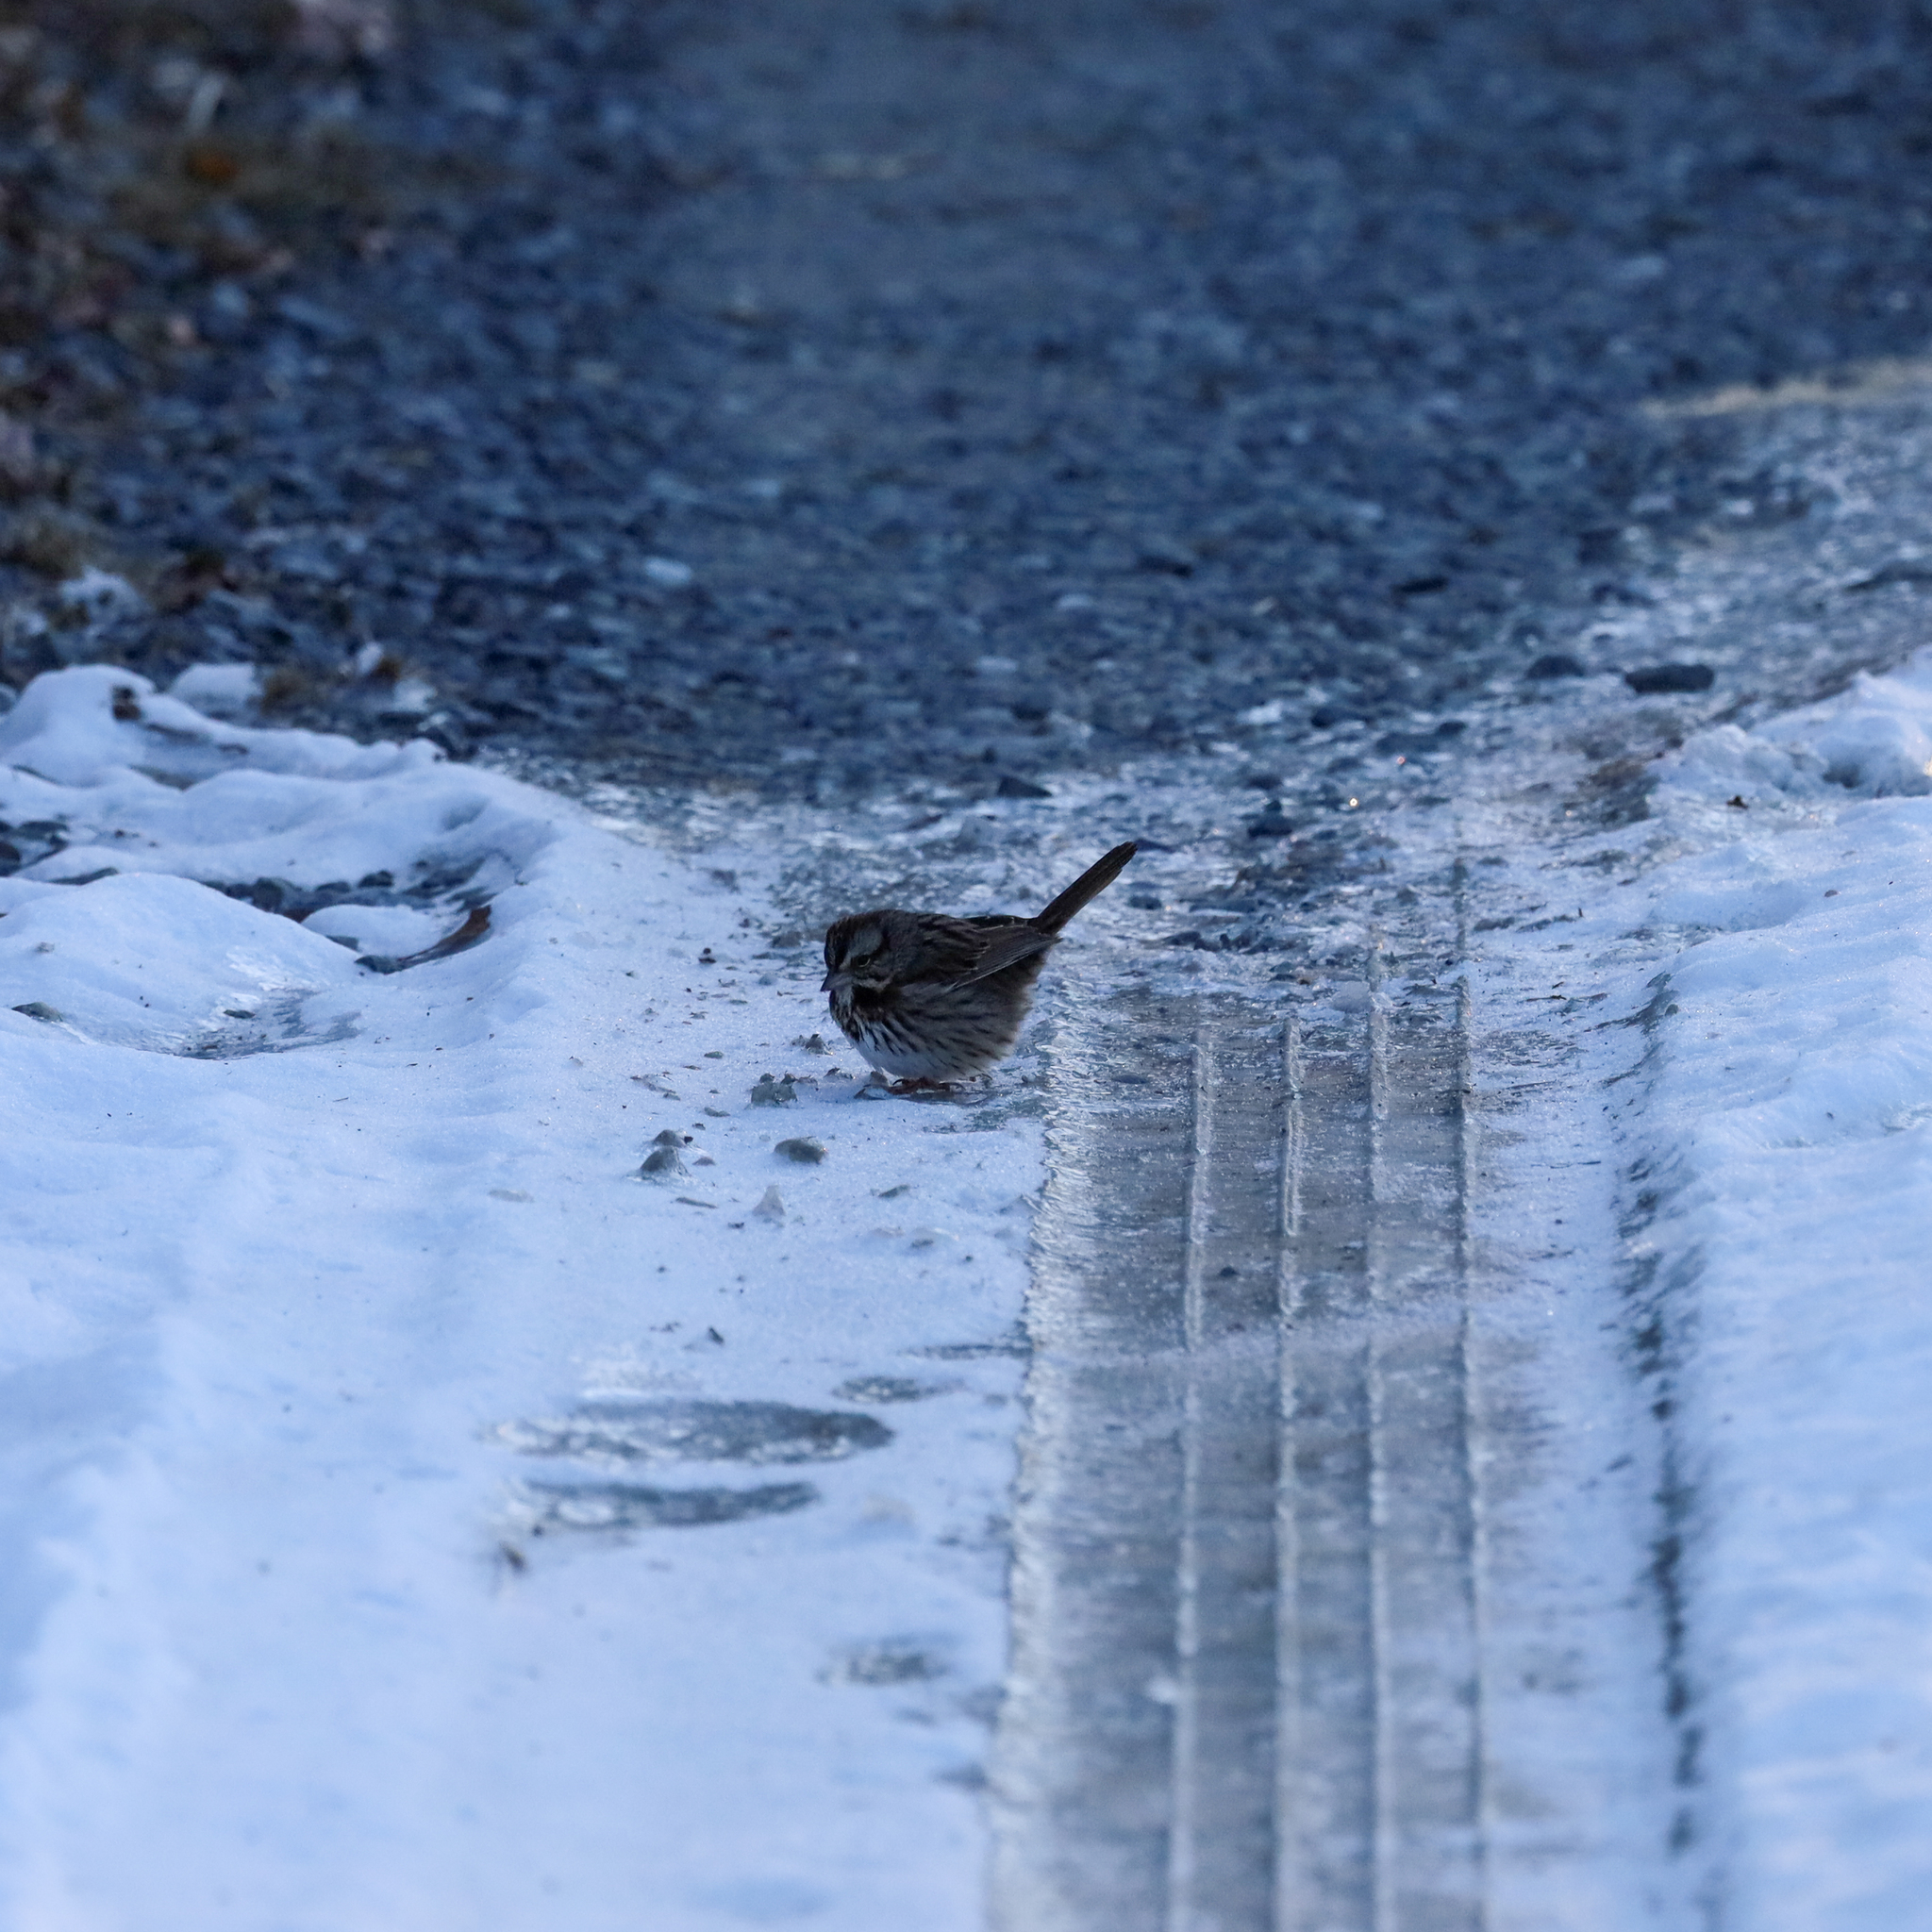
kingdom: Animalia
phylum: Chordata
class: Aves
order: Passeriformes
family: Passerellidae
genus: Melospiza
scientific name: Melospiza melodia
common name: Song sparrow
